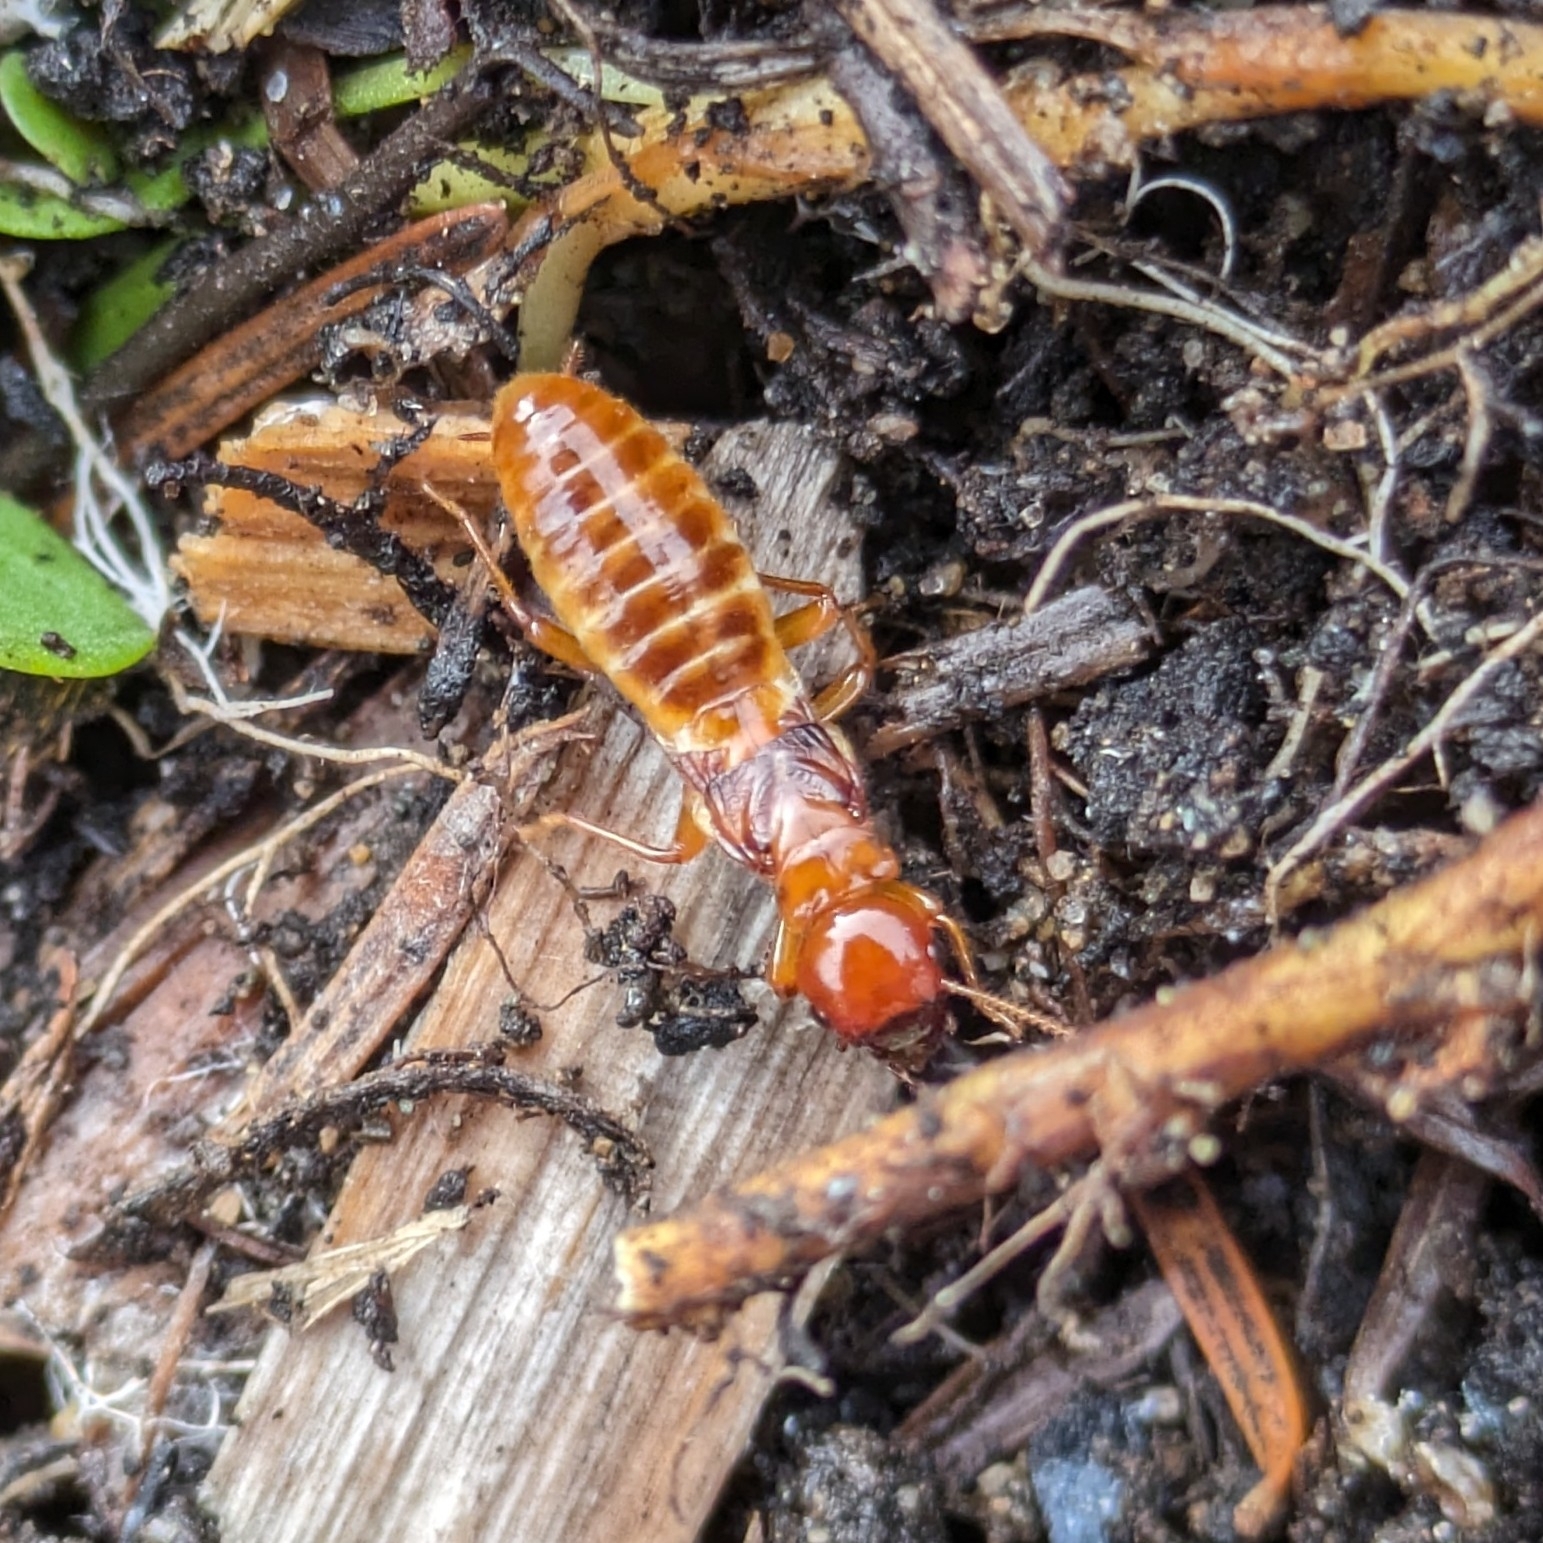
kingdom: Animalia
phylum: Arthropoda
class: Insecta
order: Blattodea
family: Archotermopsidae
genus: Zootermopsis
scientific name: Zootermopsis angusticollis
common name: Rottenwood termite
